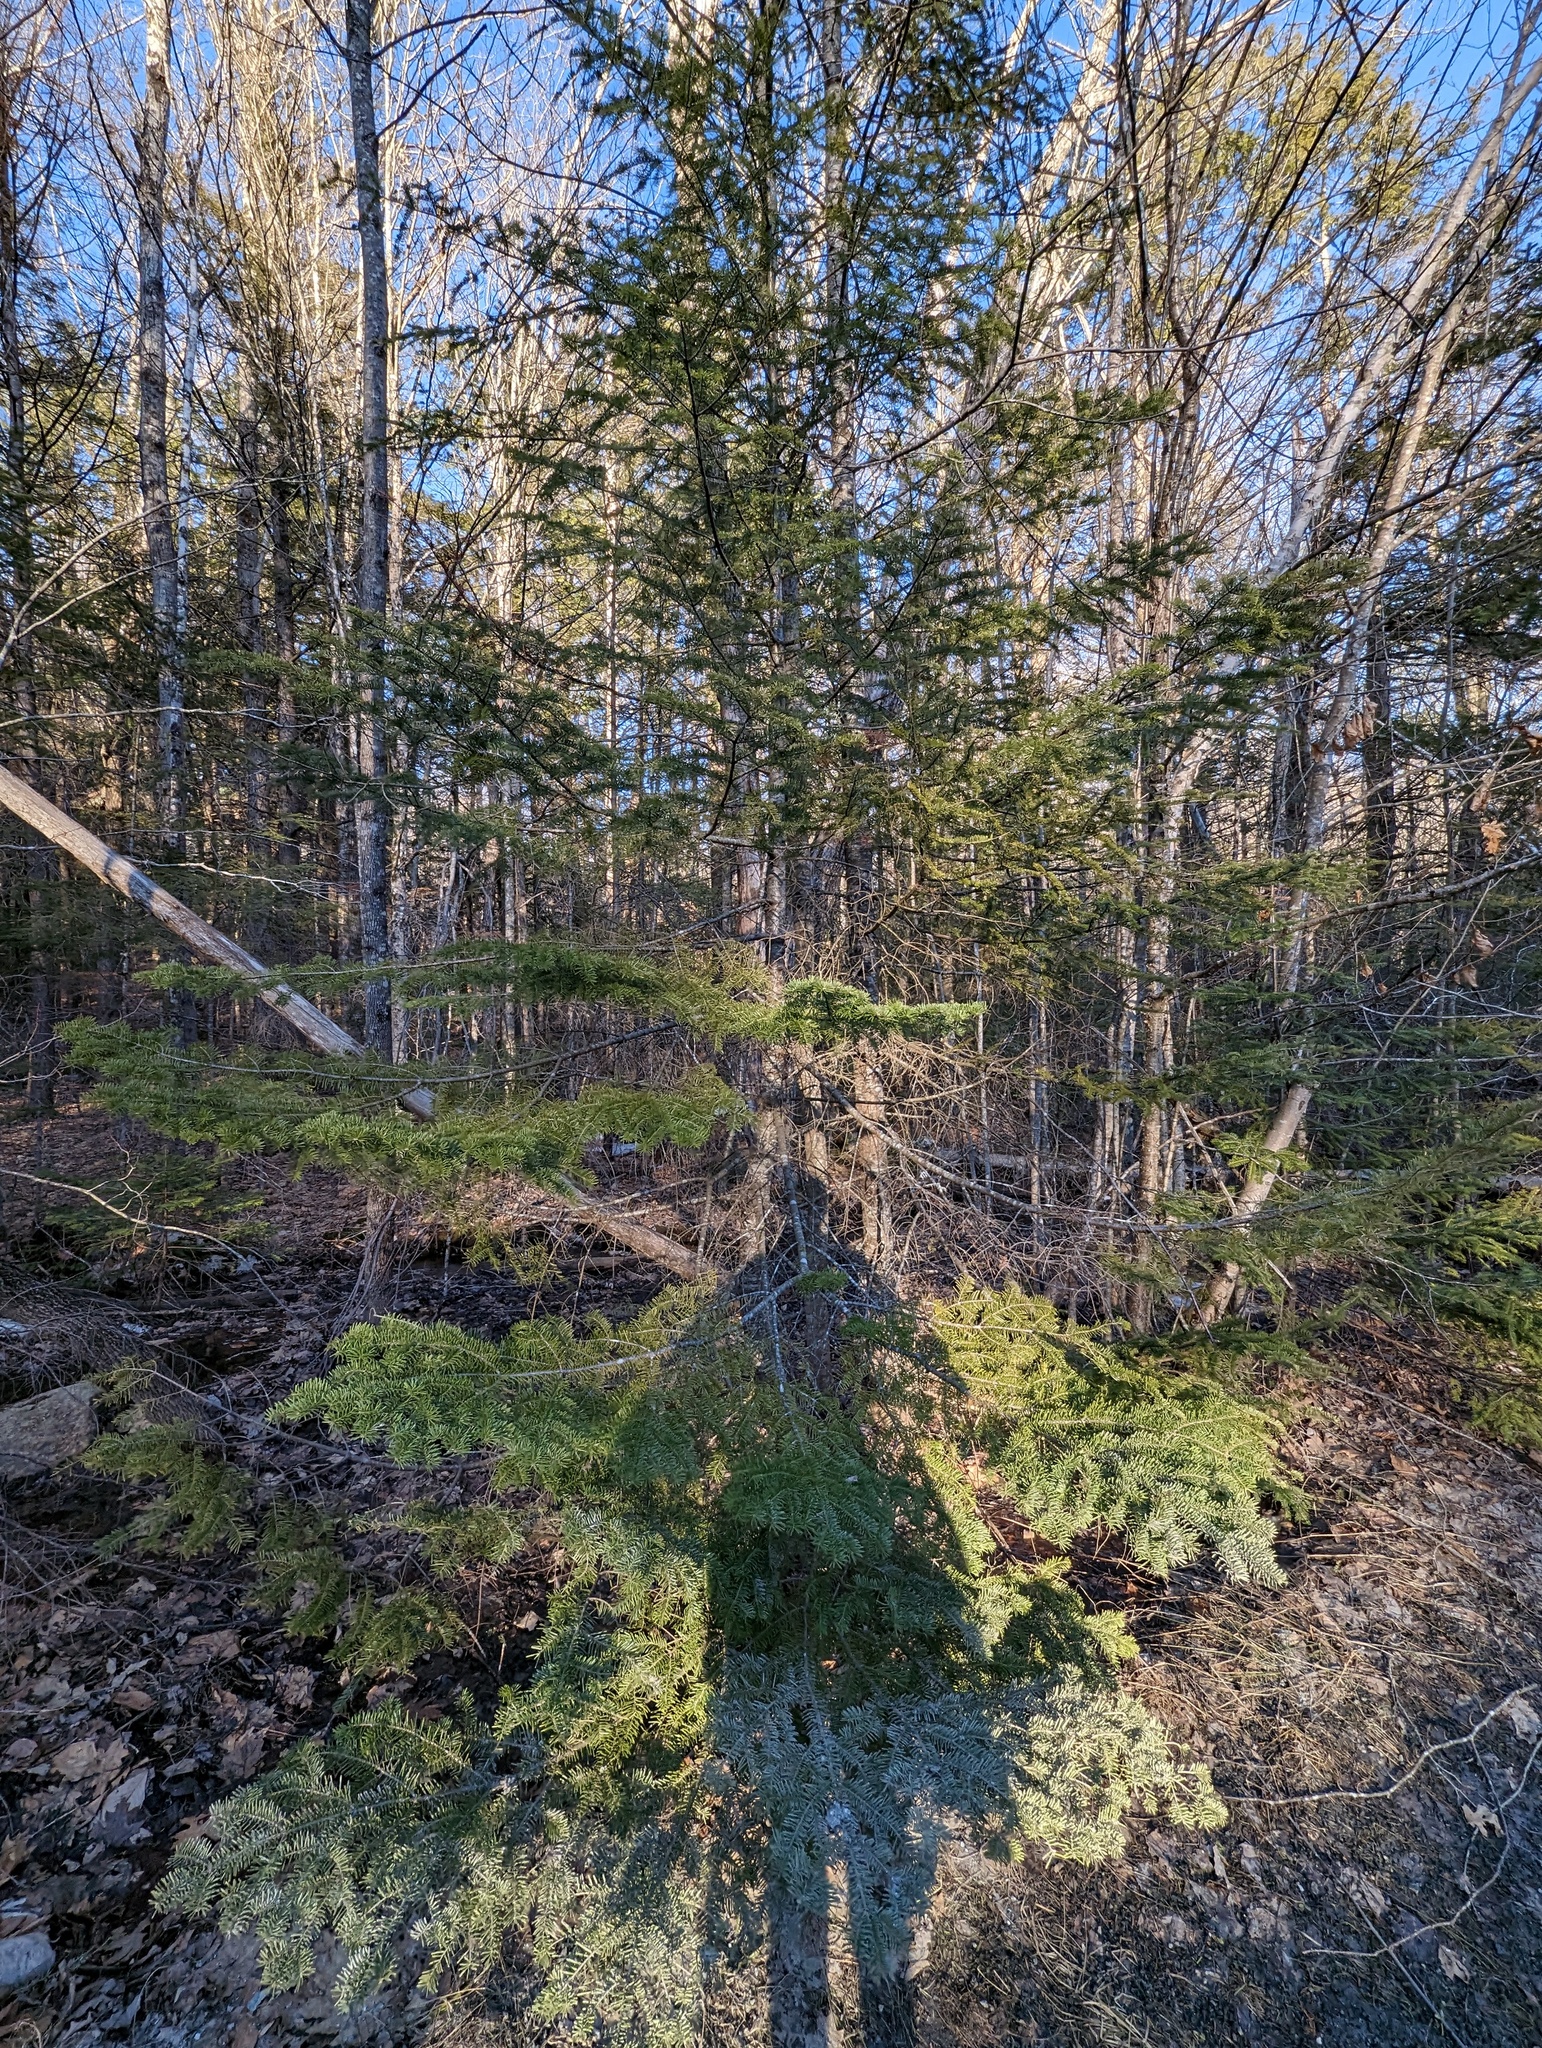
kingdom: Plantae
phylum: Tracheophyta
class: Pinopsida
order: Pinales
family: Pinaceae
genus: Abies
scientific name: Abies balsamea
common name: Balsam fir
